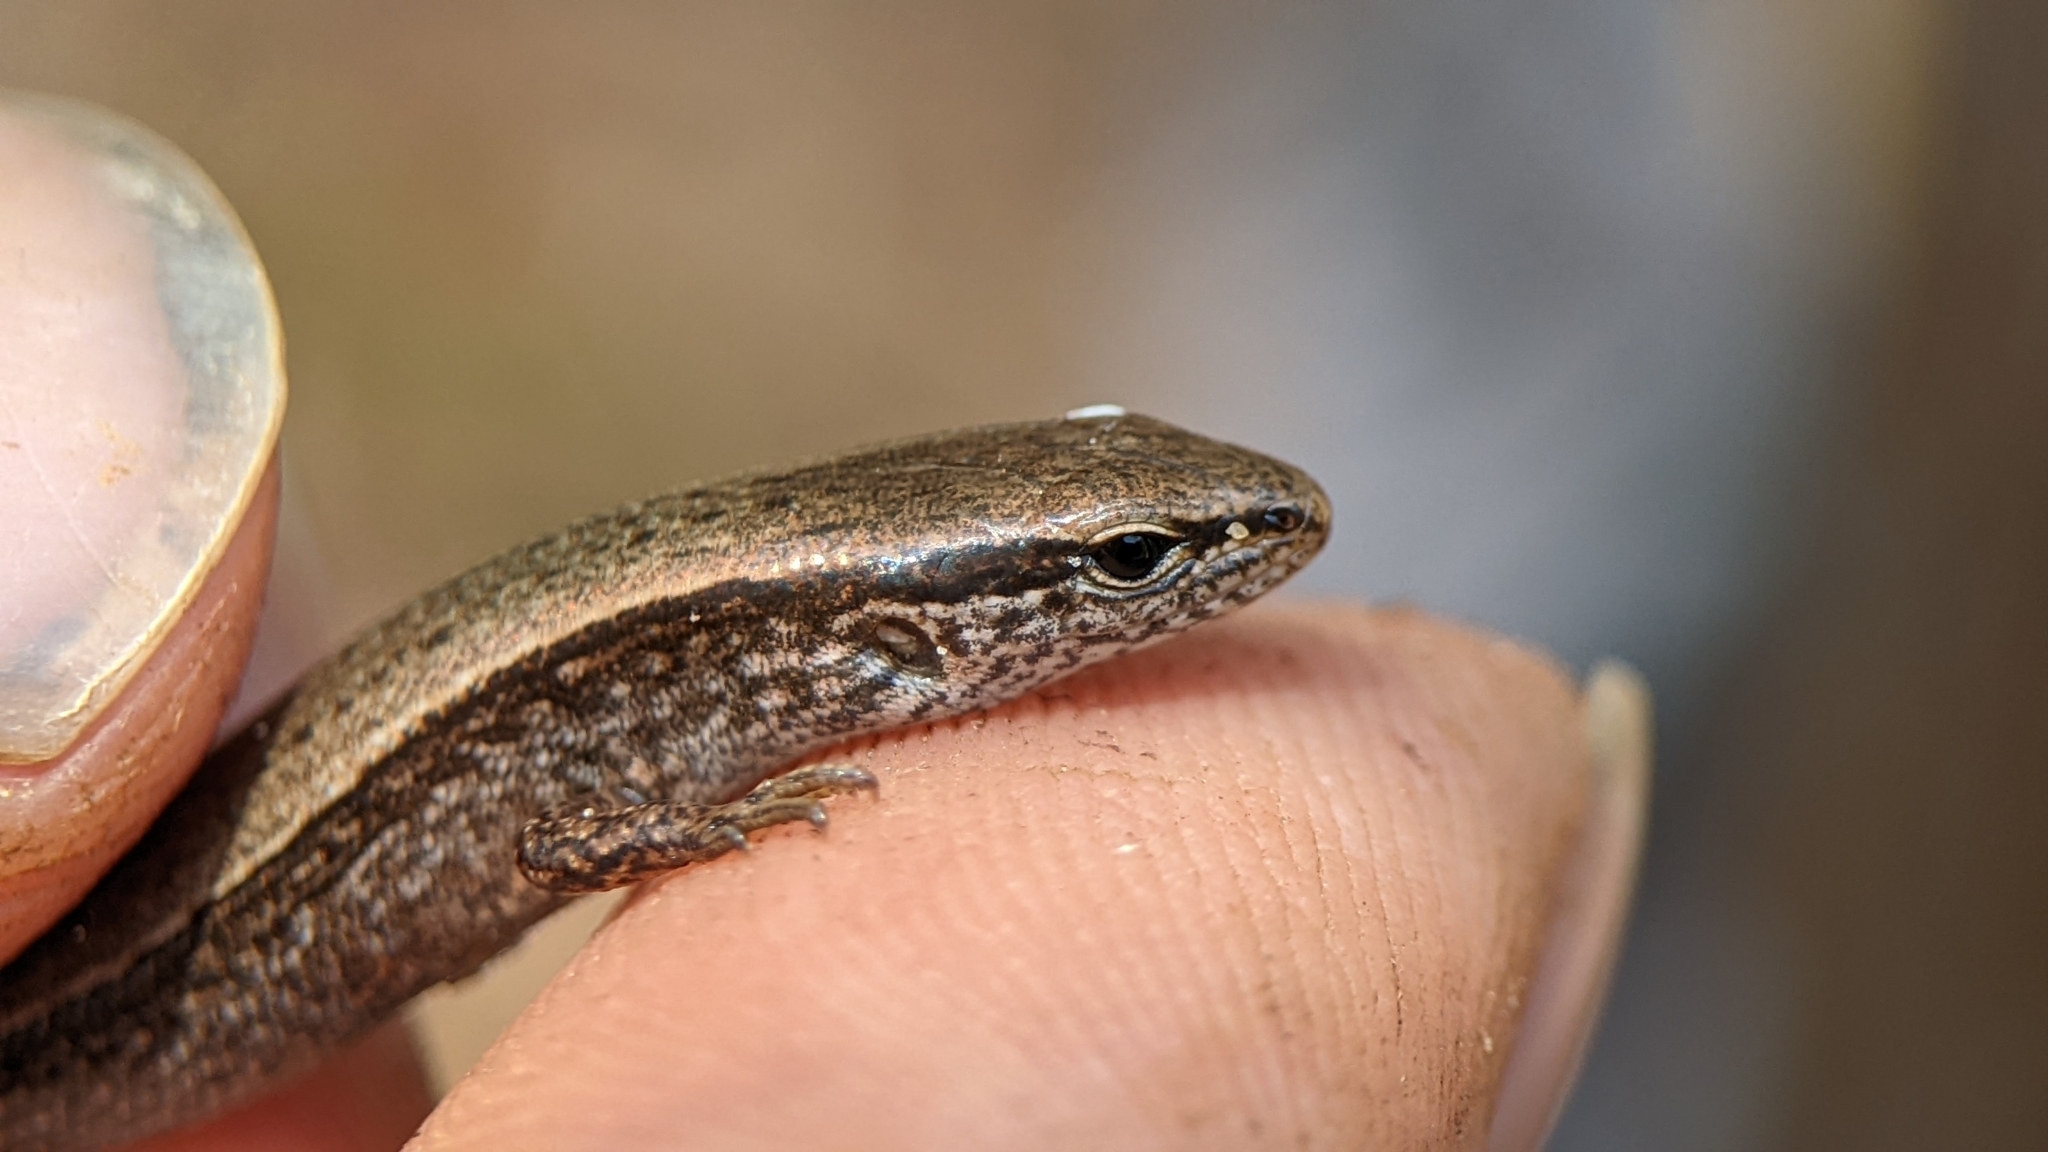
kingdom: Animalia
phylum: Chordata
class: Squamata
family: Scincidae
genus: Scincella
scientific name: Scincella lateralis
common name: Ground skink
